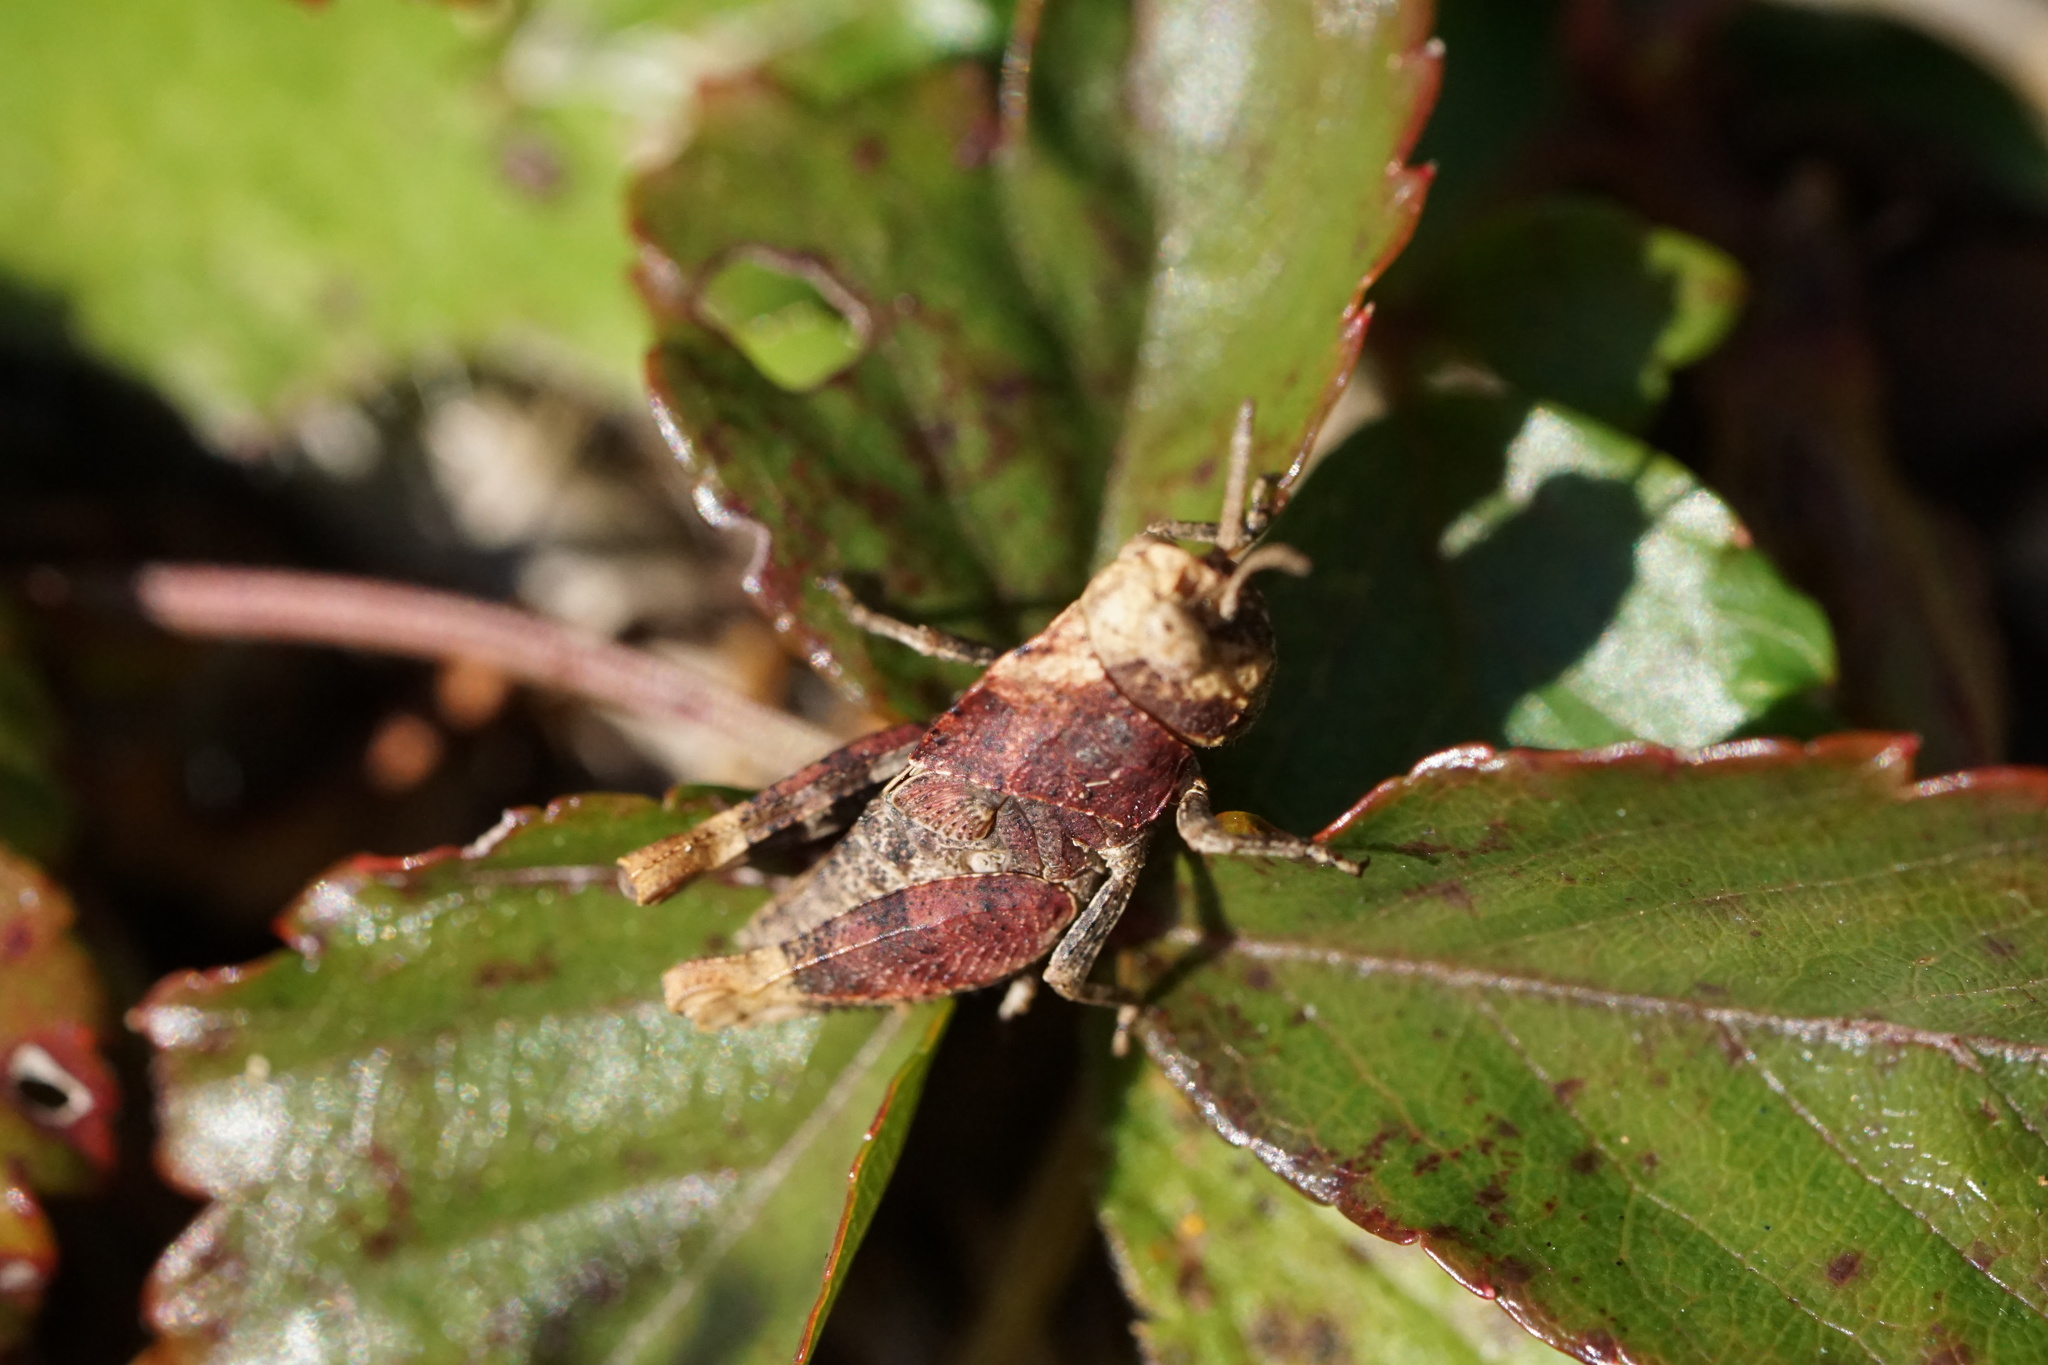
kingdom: Animalia
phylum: Arthropoda
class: Insecta
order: Orthoptera
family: Acrididae
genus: Arphia
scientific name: Arphia sulphurea
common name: Spring yellow-winged locust
